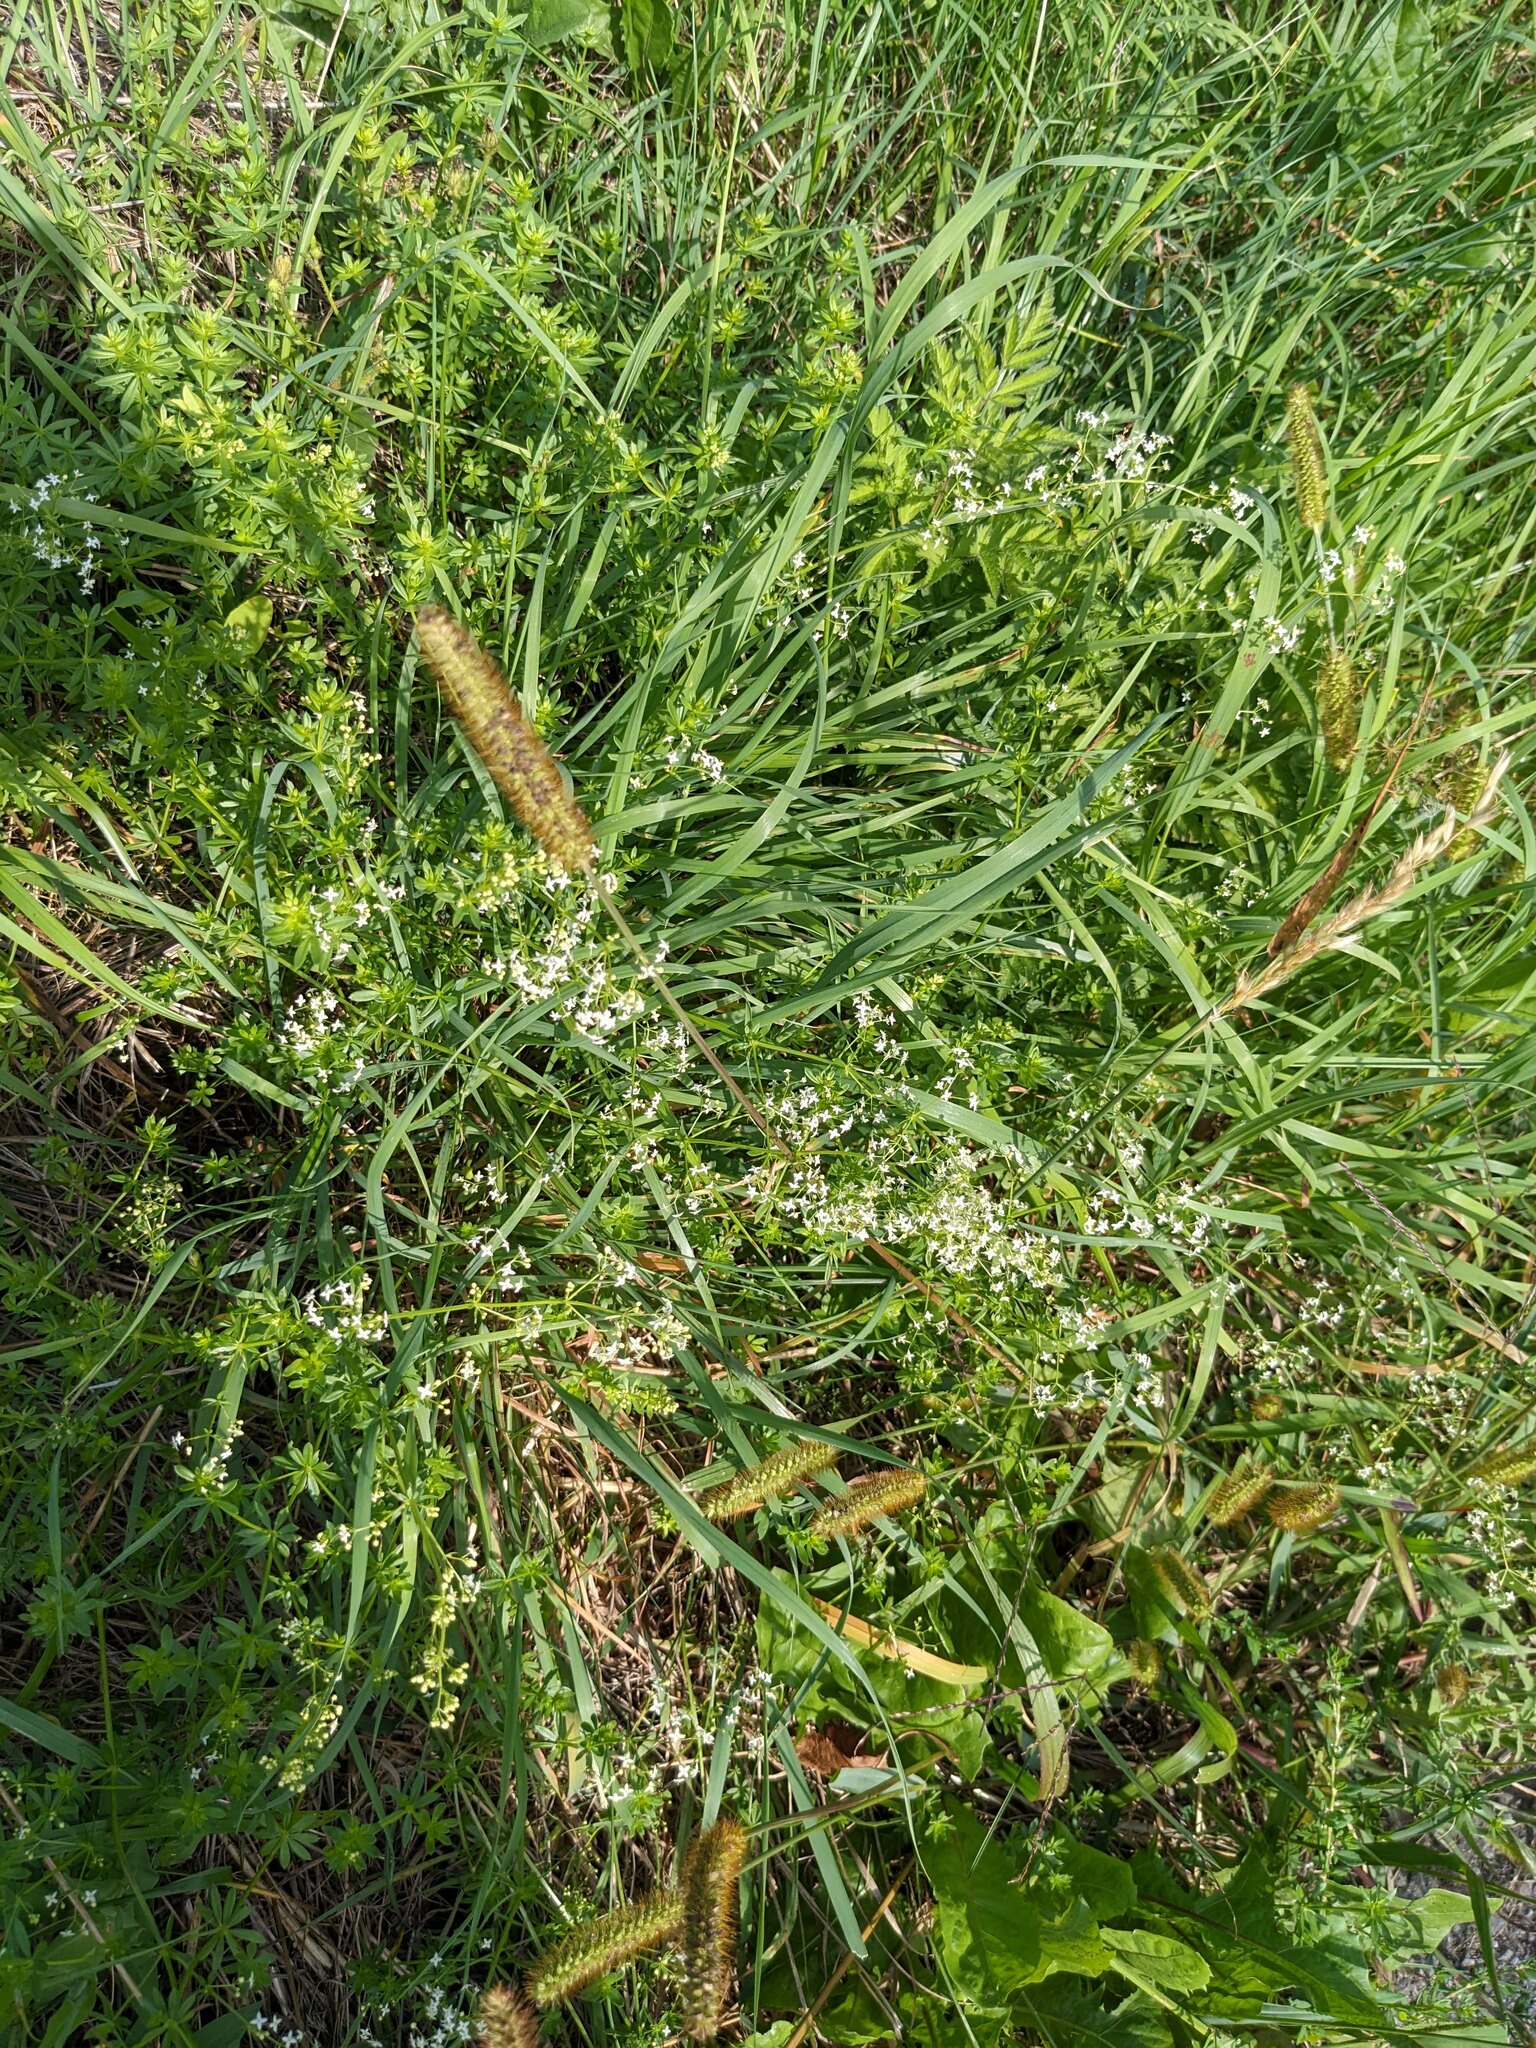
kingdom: Plantae
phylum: Tracheophyta
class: Liliopsida
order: Poales
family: Poaceae
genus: Setaria
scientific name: Setaria pumila
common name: Yellow bristle-grass
